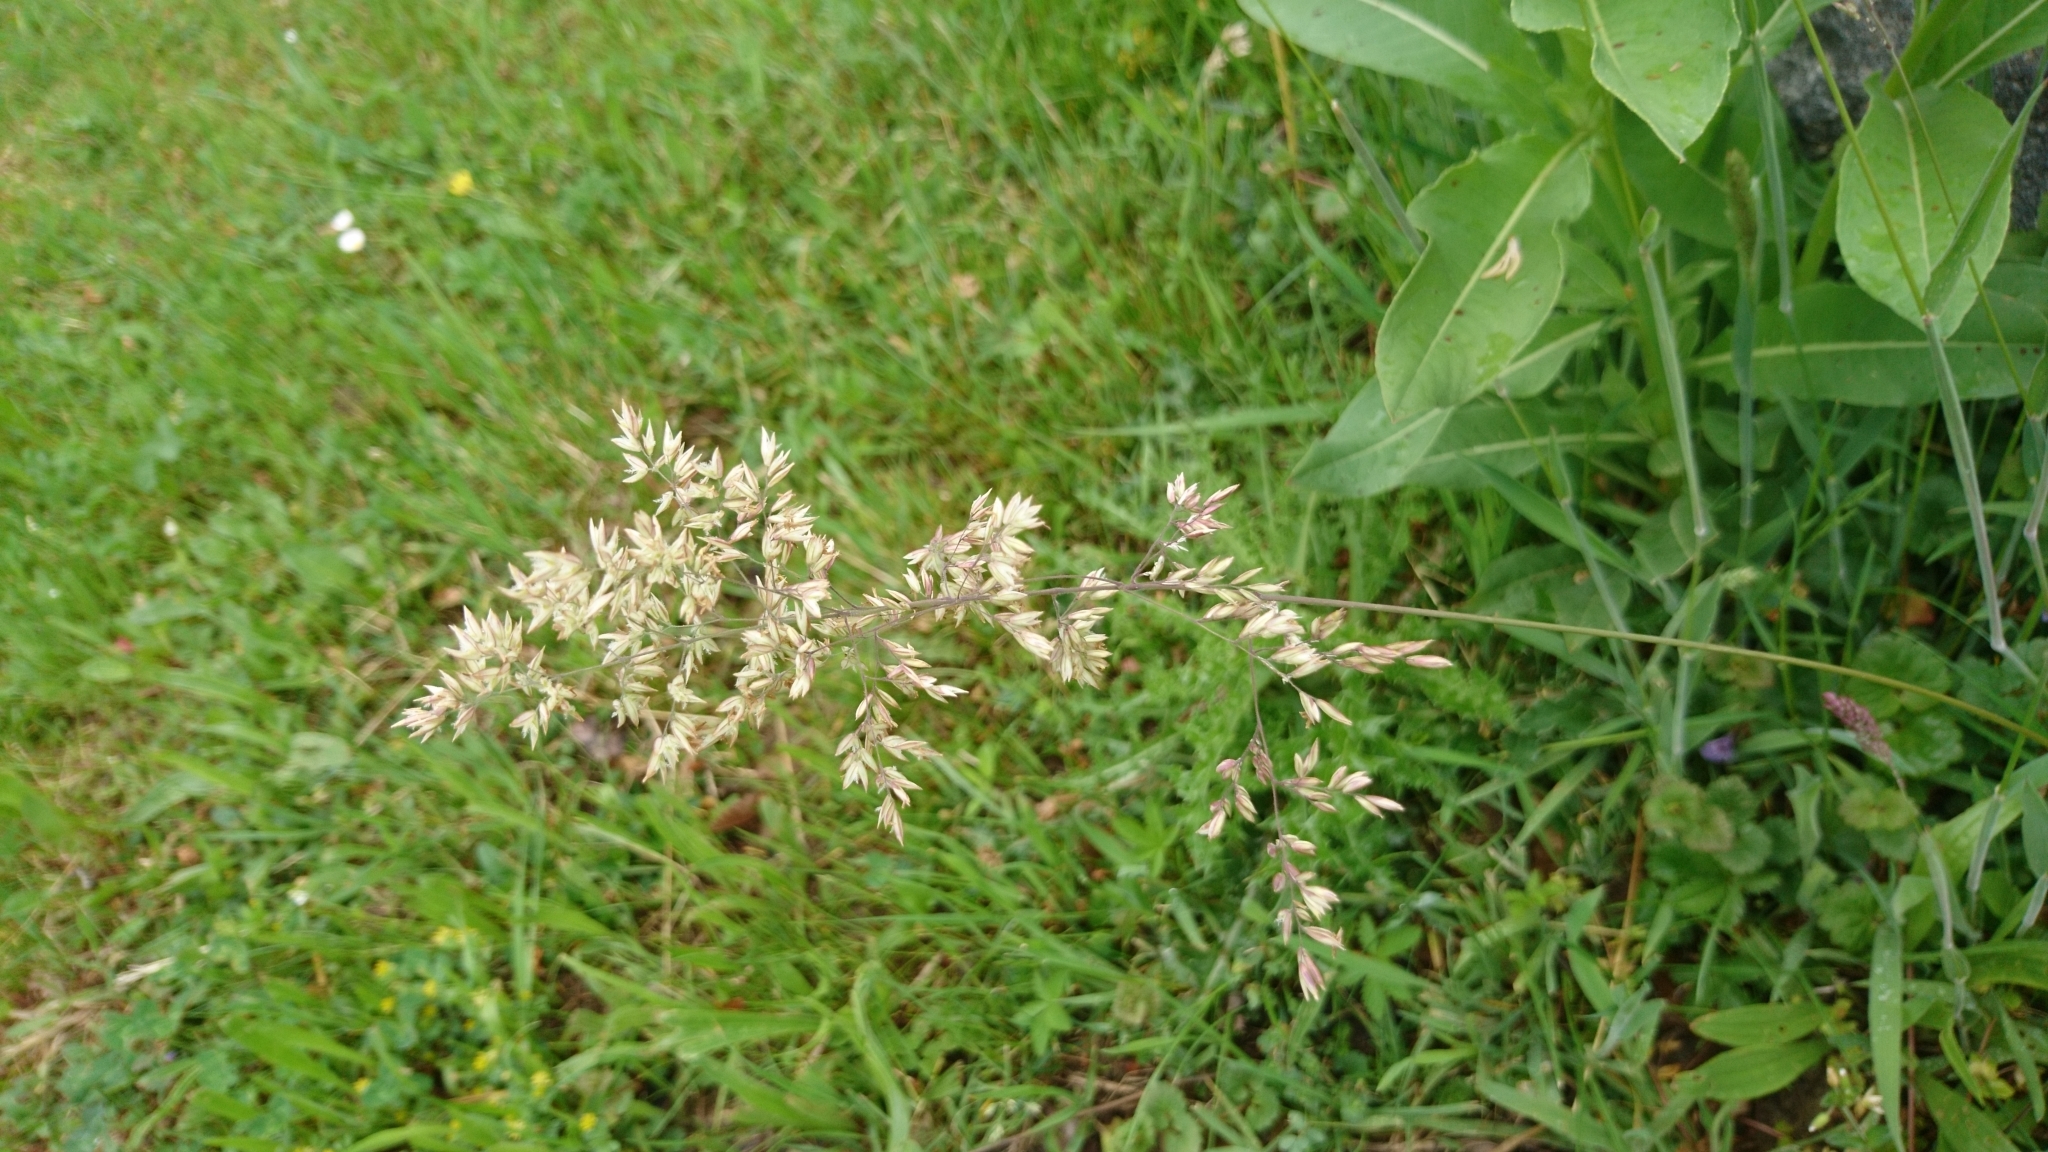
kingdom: Plantae
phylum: Tracheophyta
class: Liliopsida
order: Poales
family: Poaceae
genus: Holcus
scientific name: Holcus lanatus
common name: Yorkshire-fog
